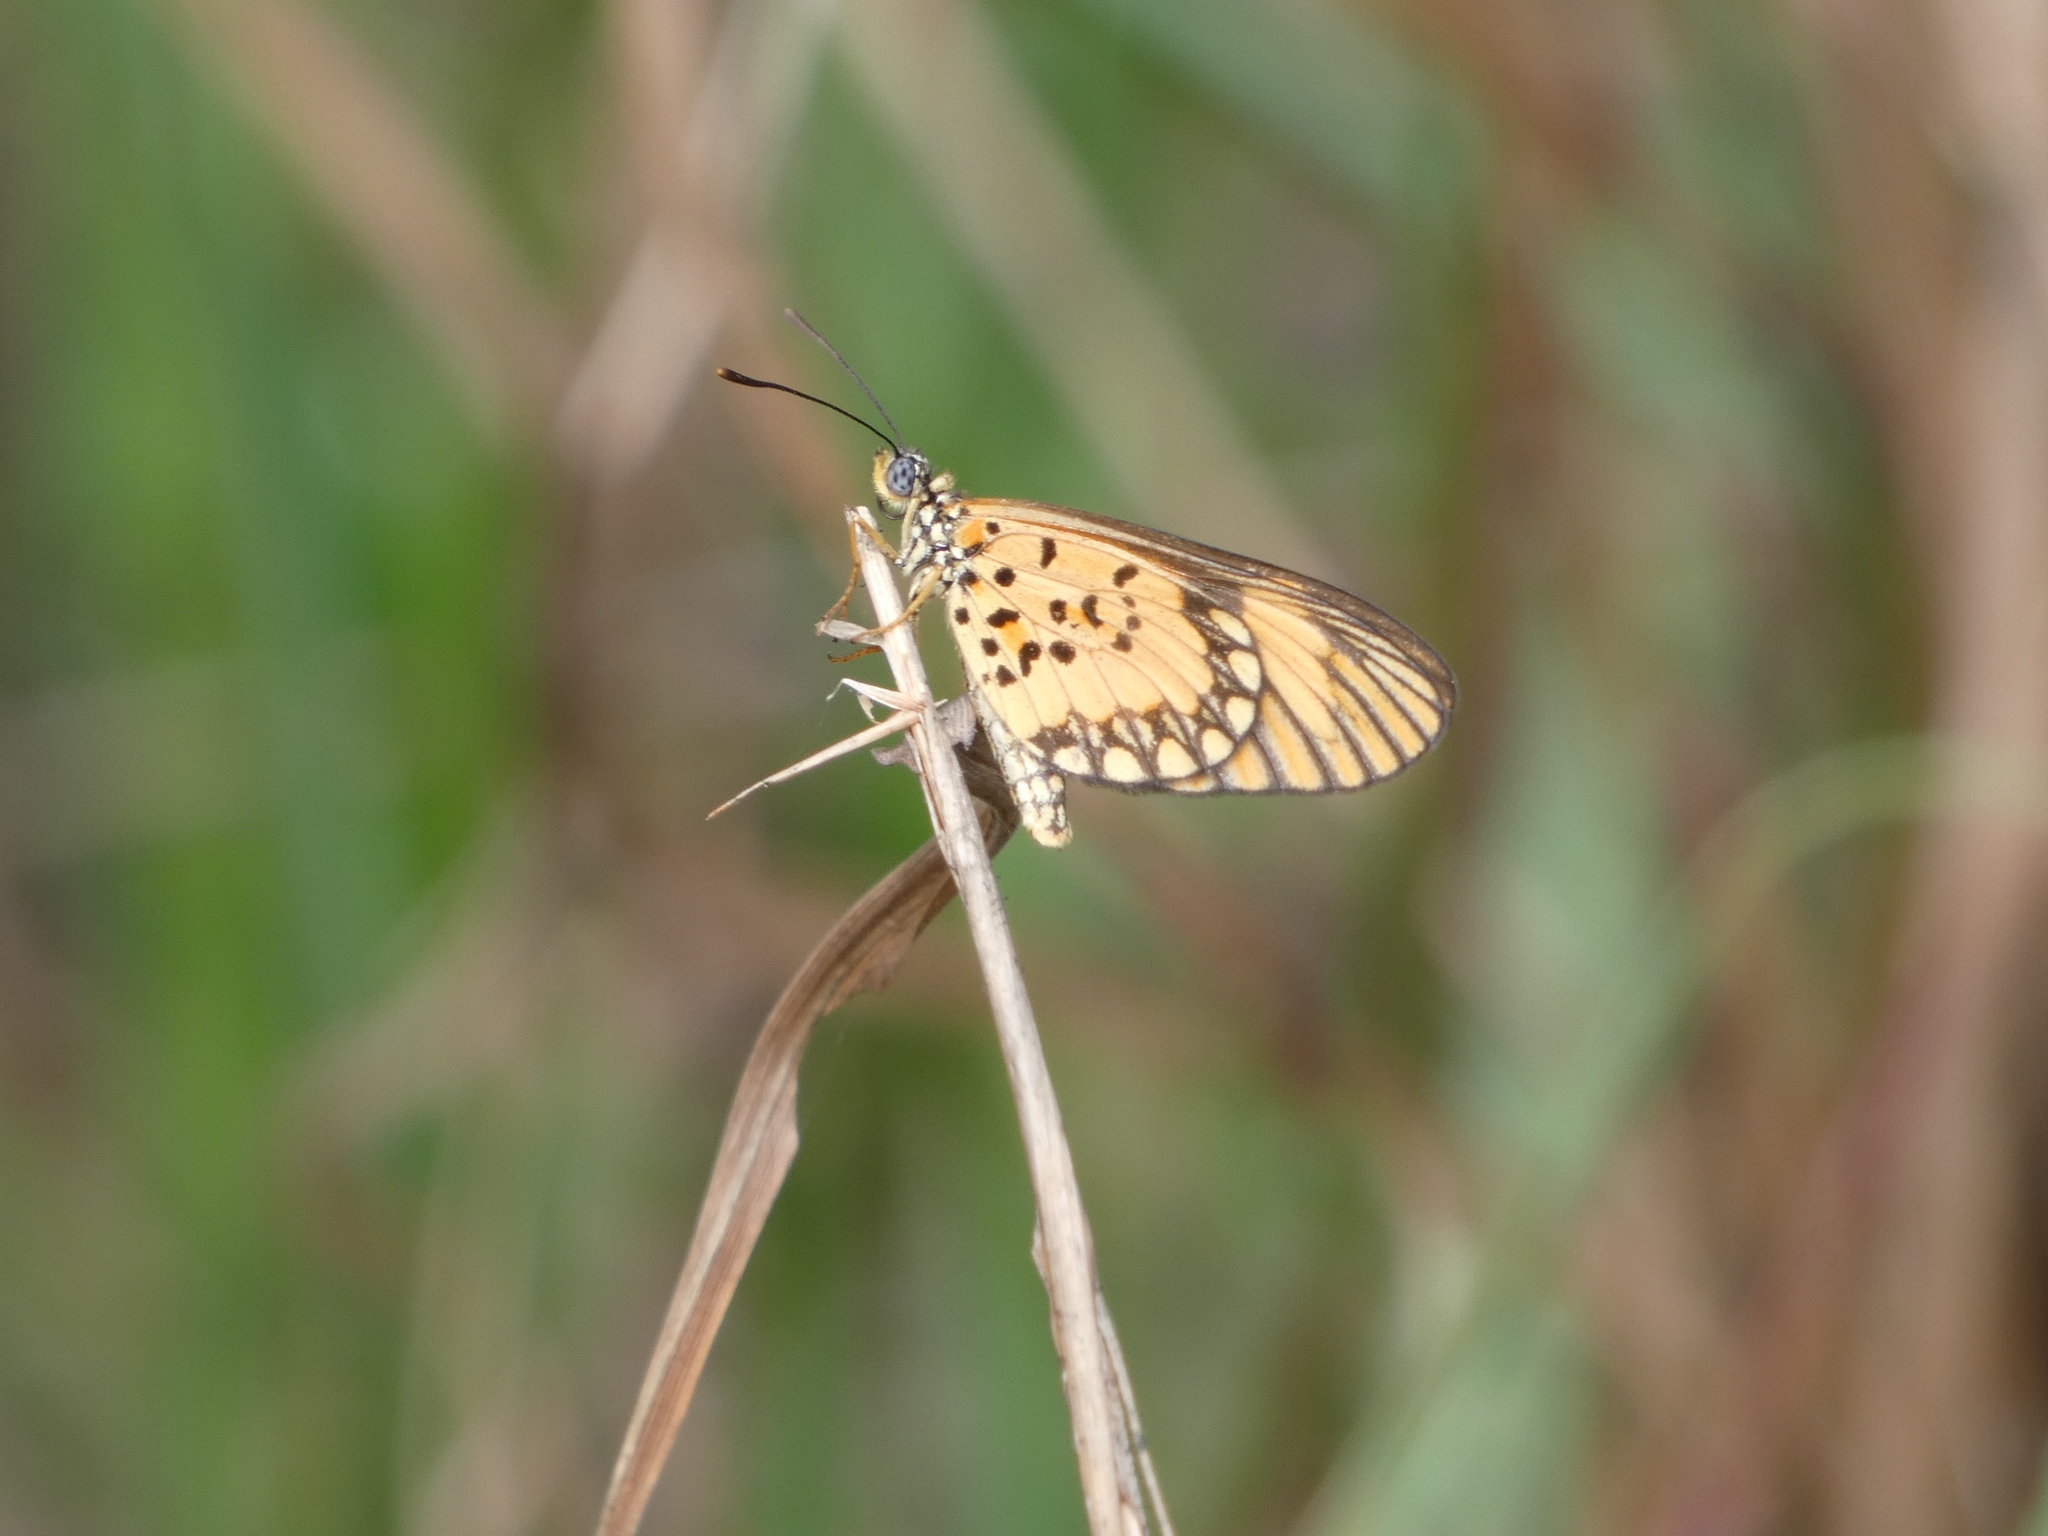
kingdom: Animalia
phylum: Arthropoda
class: Insecta
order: Lepidoptera
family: Nymphalidae
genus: Acraea
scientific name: Acraea Telchinia serena
